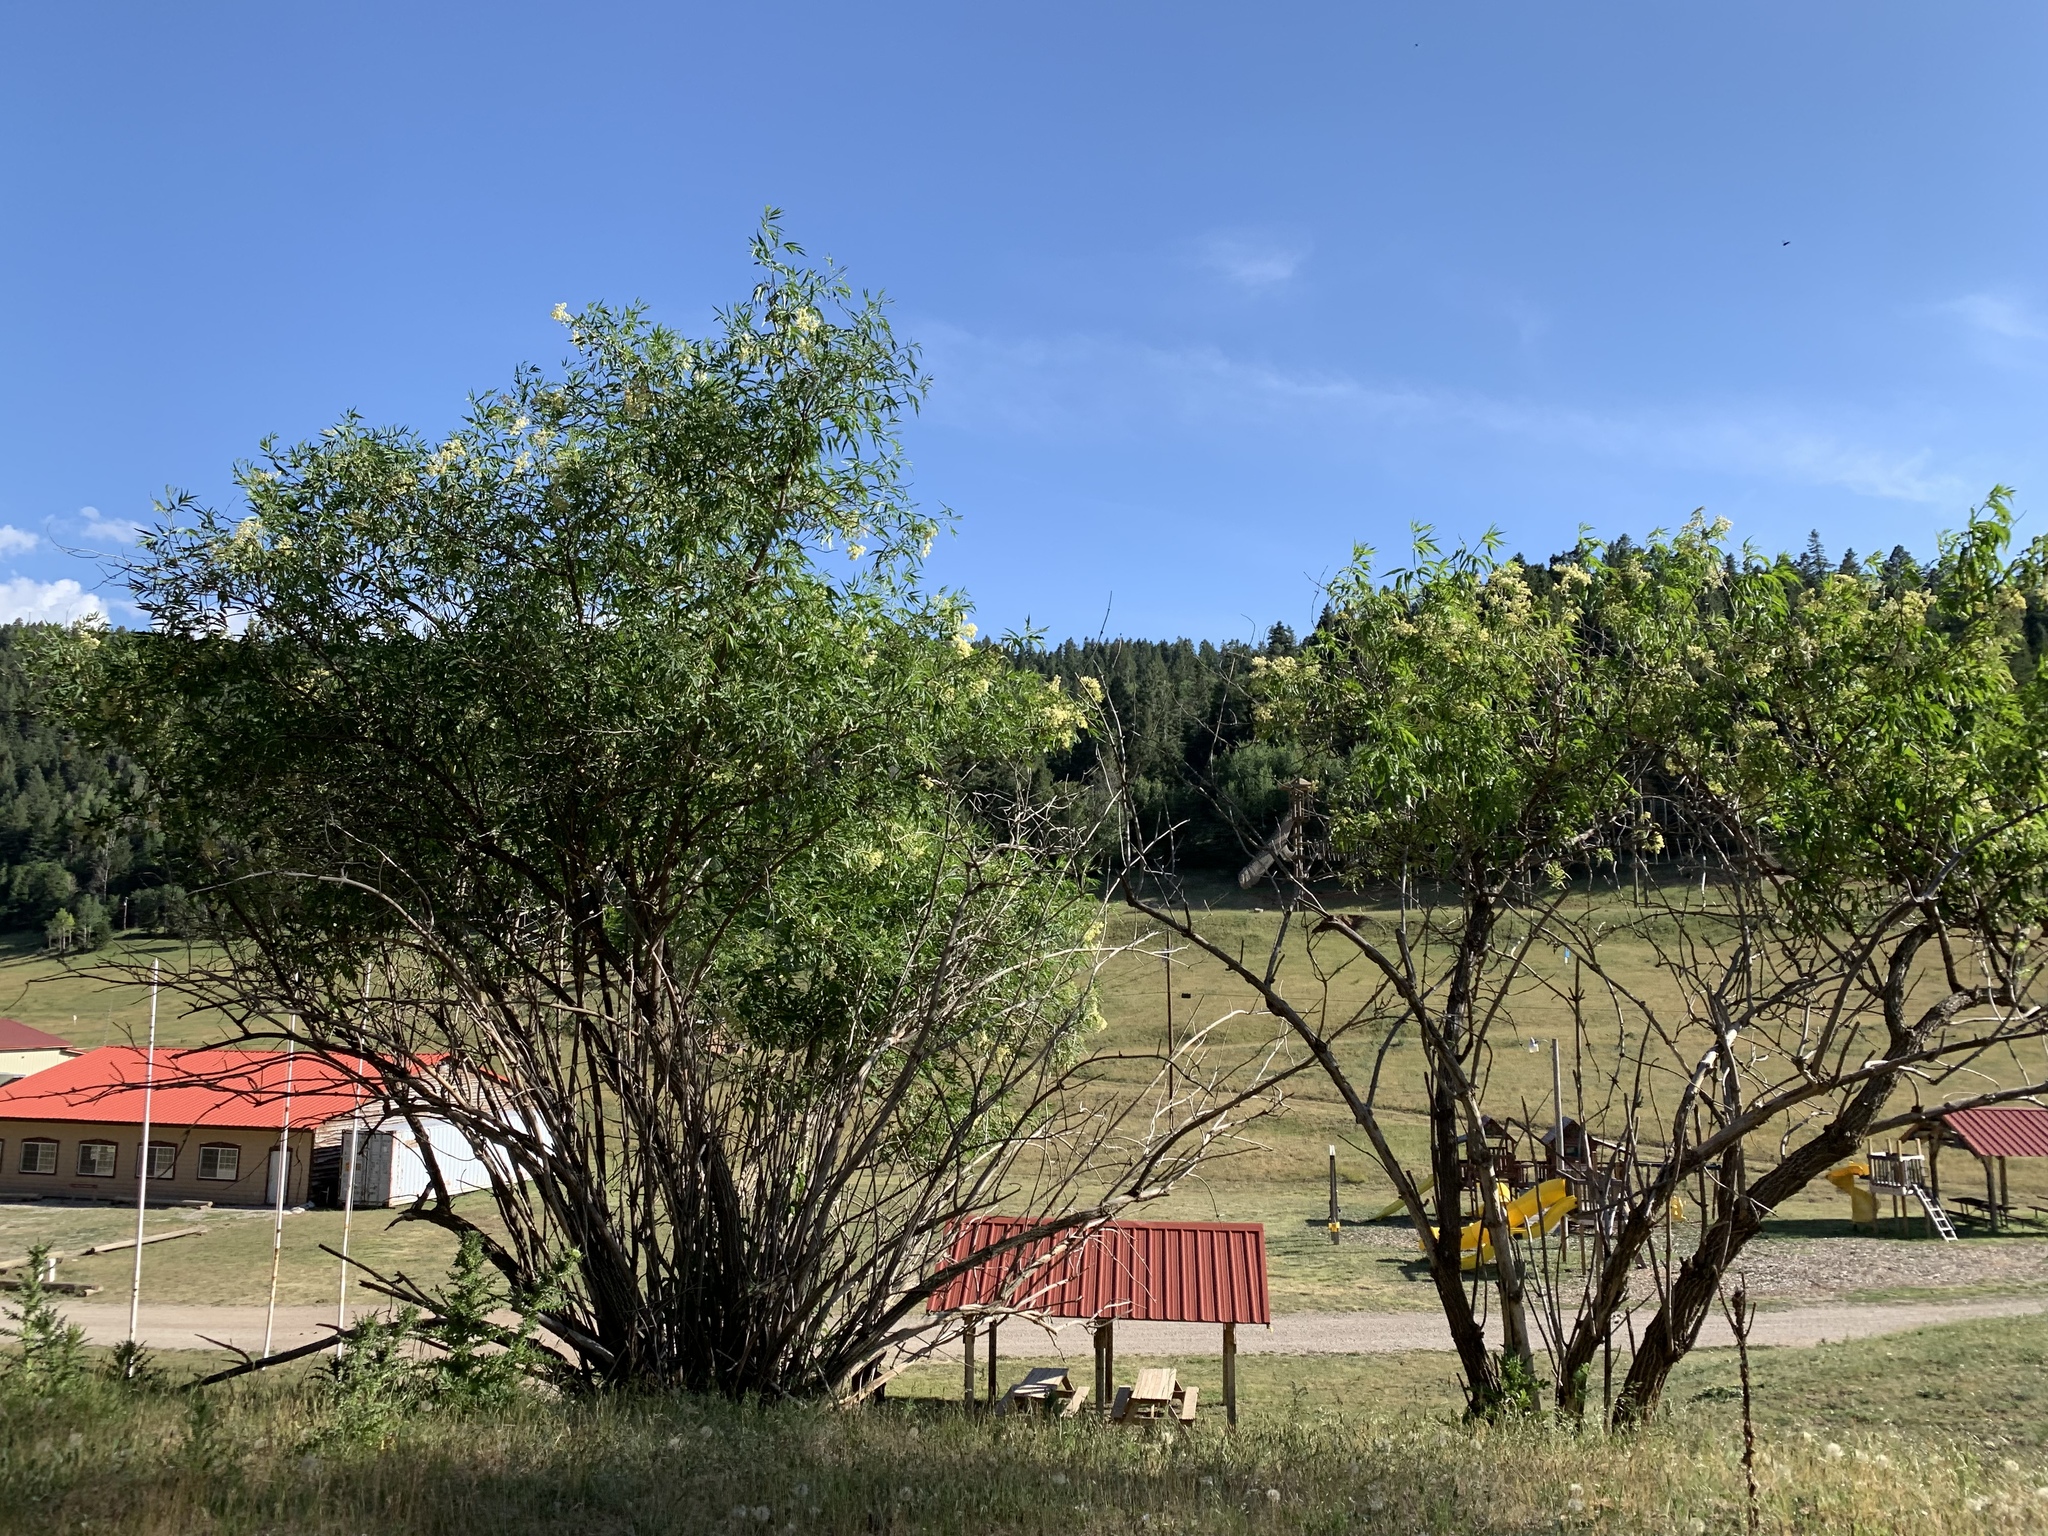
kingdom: Plantae
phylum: Tracheophyta
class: Magnoliopsida
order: Dipsacales
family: Viburnaceae
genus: Sambucus
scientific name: Sambucus cerulea
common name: Blue elder
